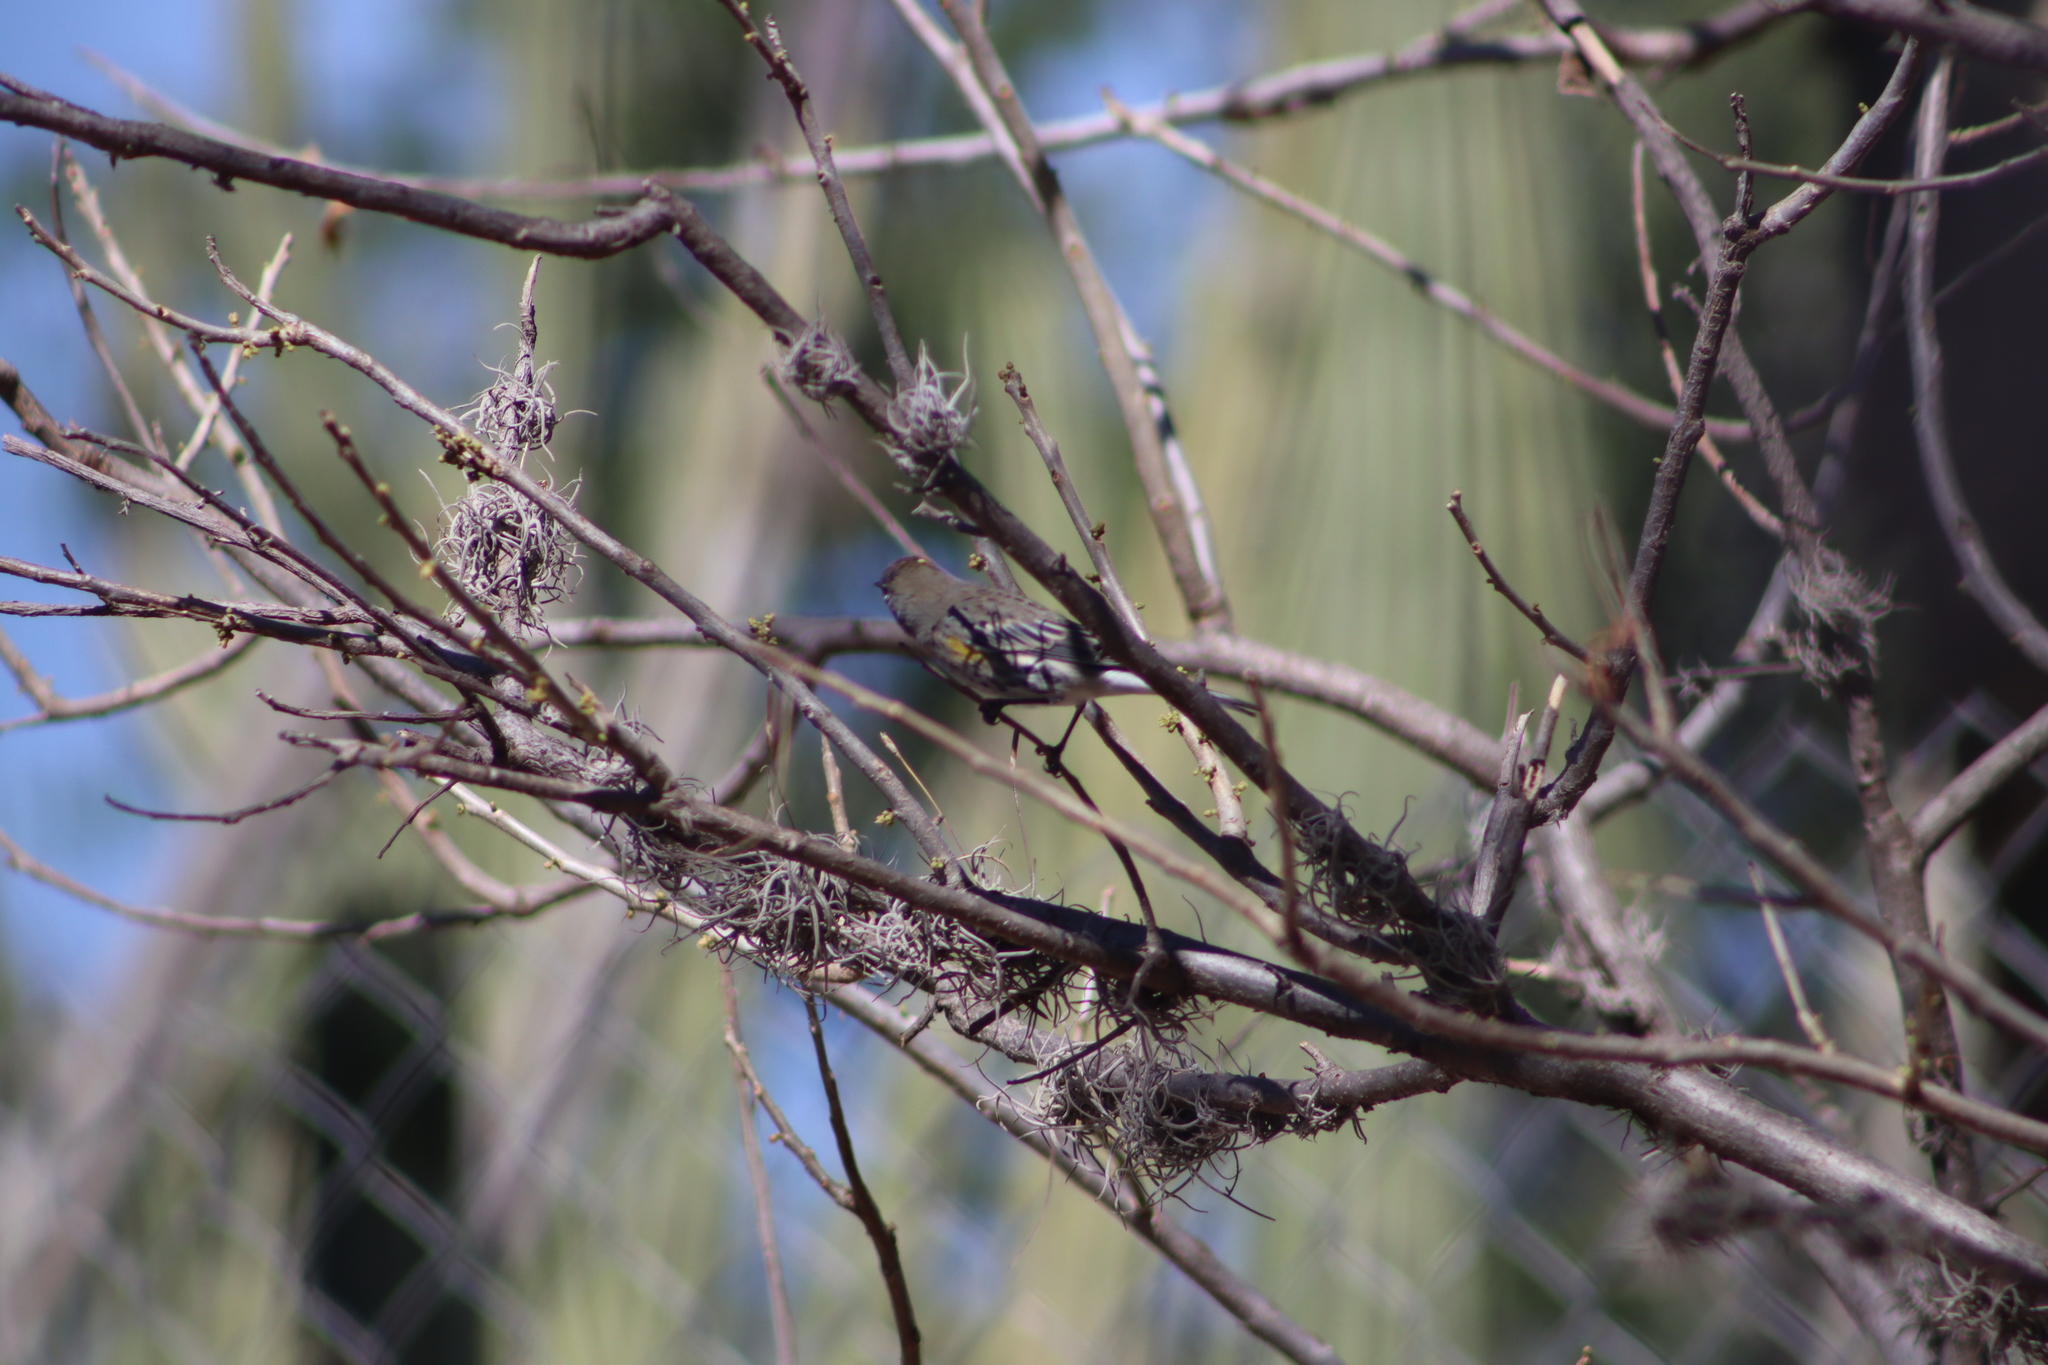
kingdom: Animalia
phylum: Chordata
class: Aves
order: Passeriformes
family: Parulidae
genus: Setophaga
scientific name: Setophaga coronata
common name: Myrtle warbler
